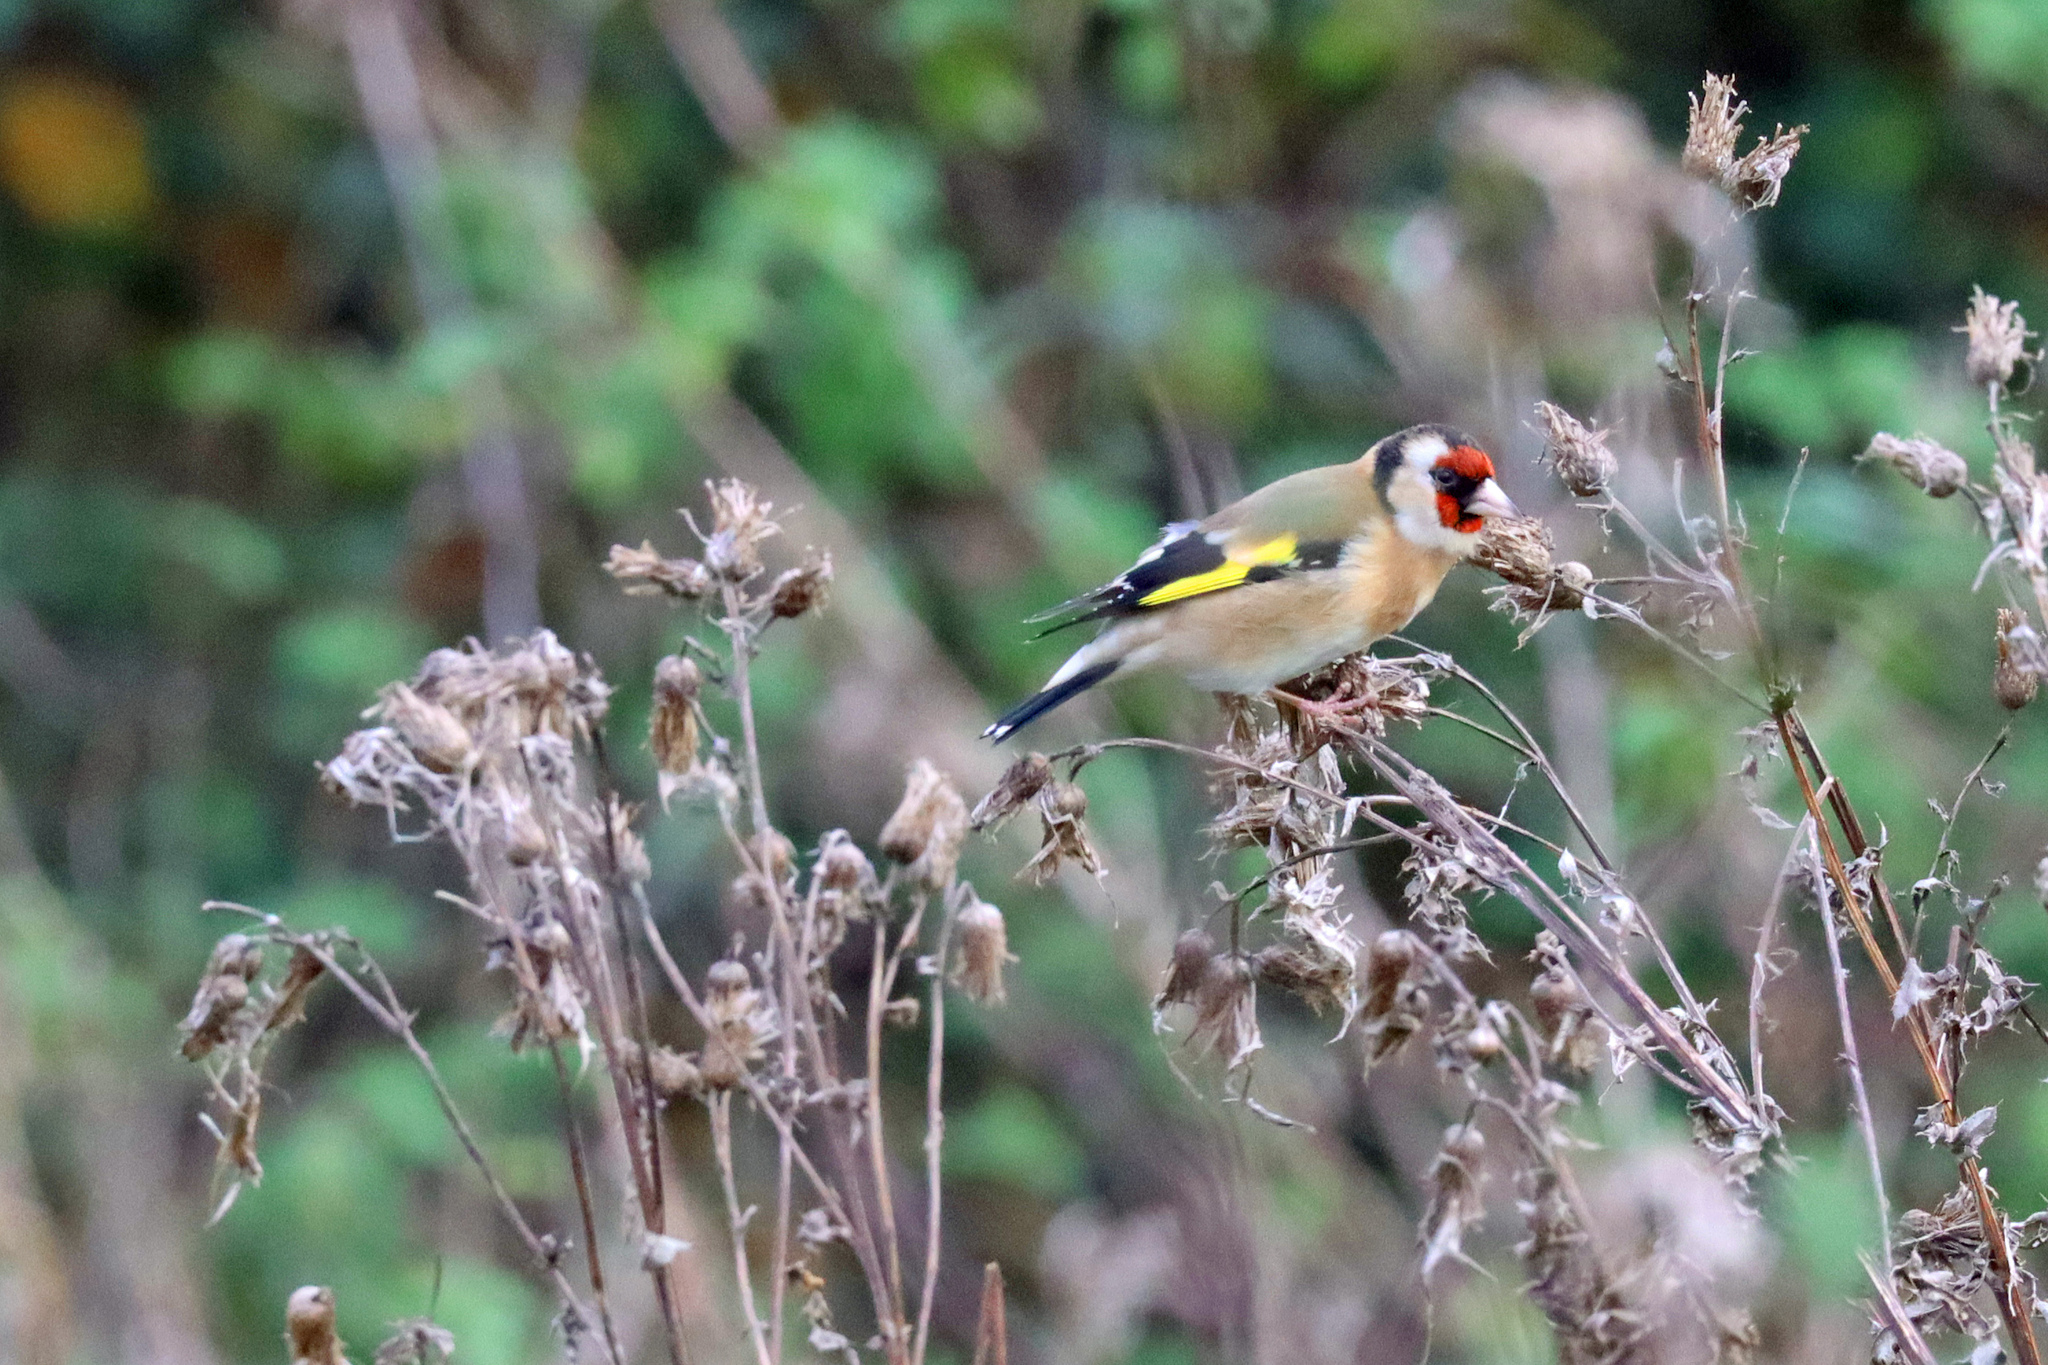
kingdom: Animalia
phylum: Chordata
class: Aves
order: Passeriformes
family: Fringillidae
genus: Carduelis
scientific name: Carduelis carduelis
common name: European goldfinch
